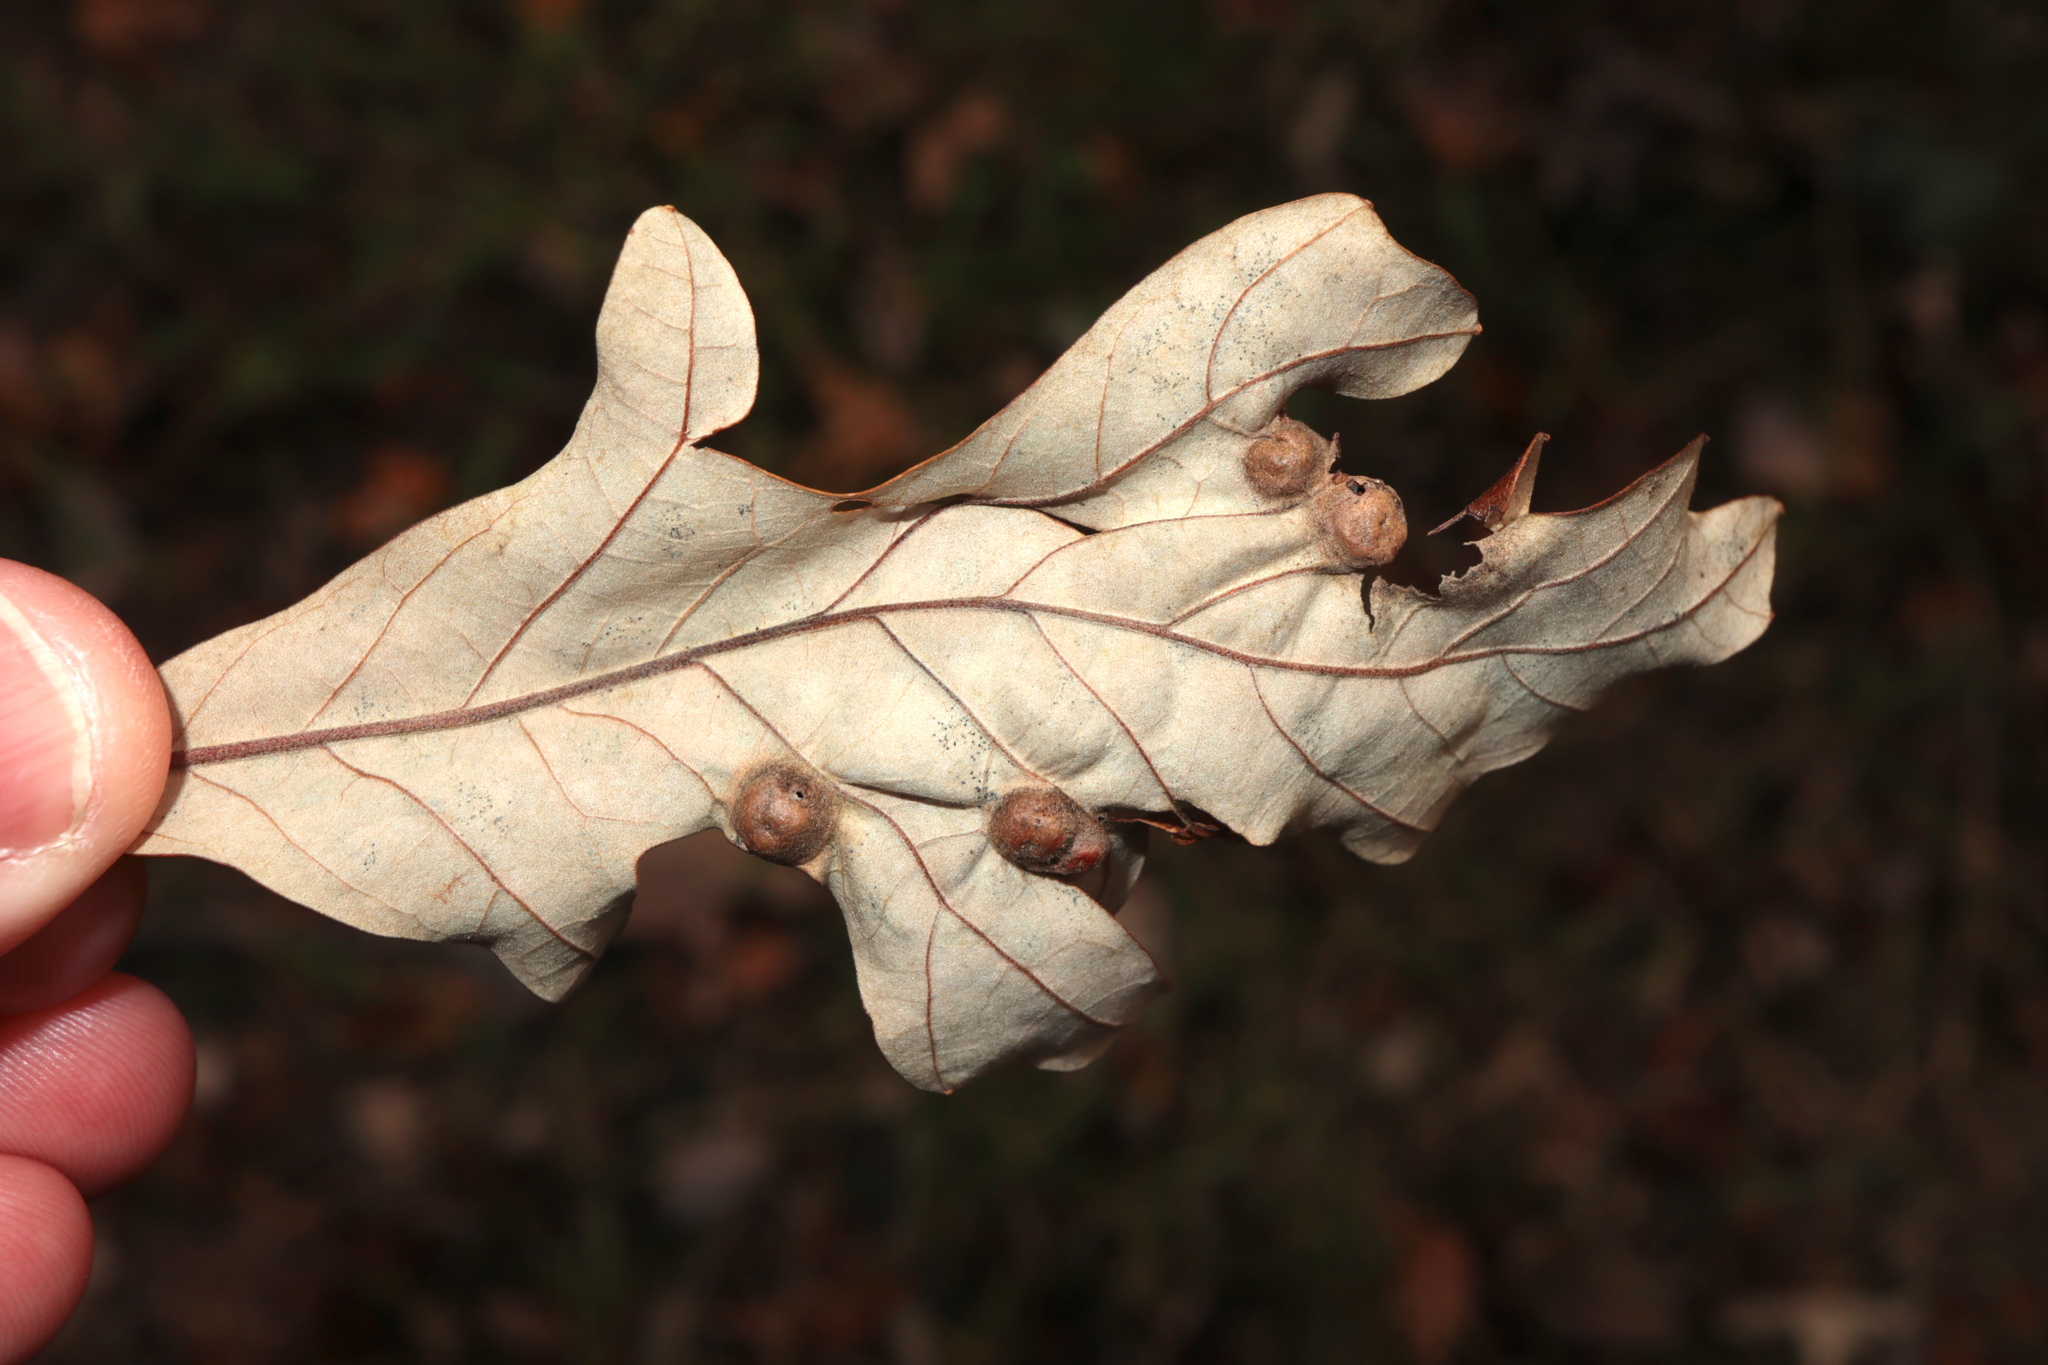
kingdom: Animalia
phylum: Arthropoda
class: Insecta
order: Hymenoptera
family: Cynipidae
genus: Callirhytis
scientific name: Callirhytis
